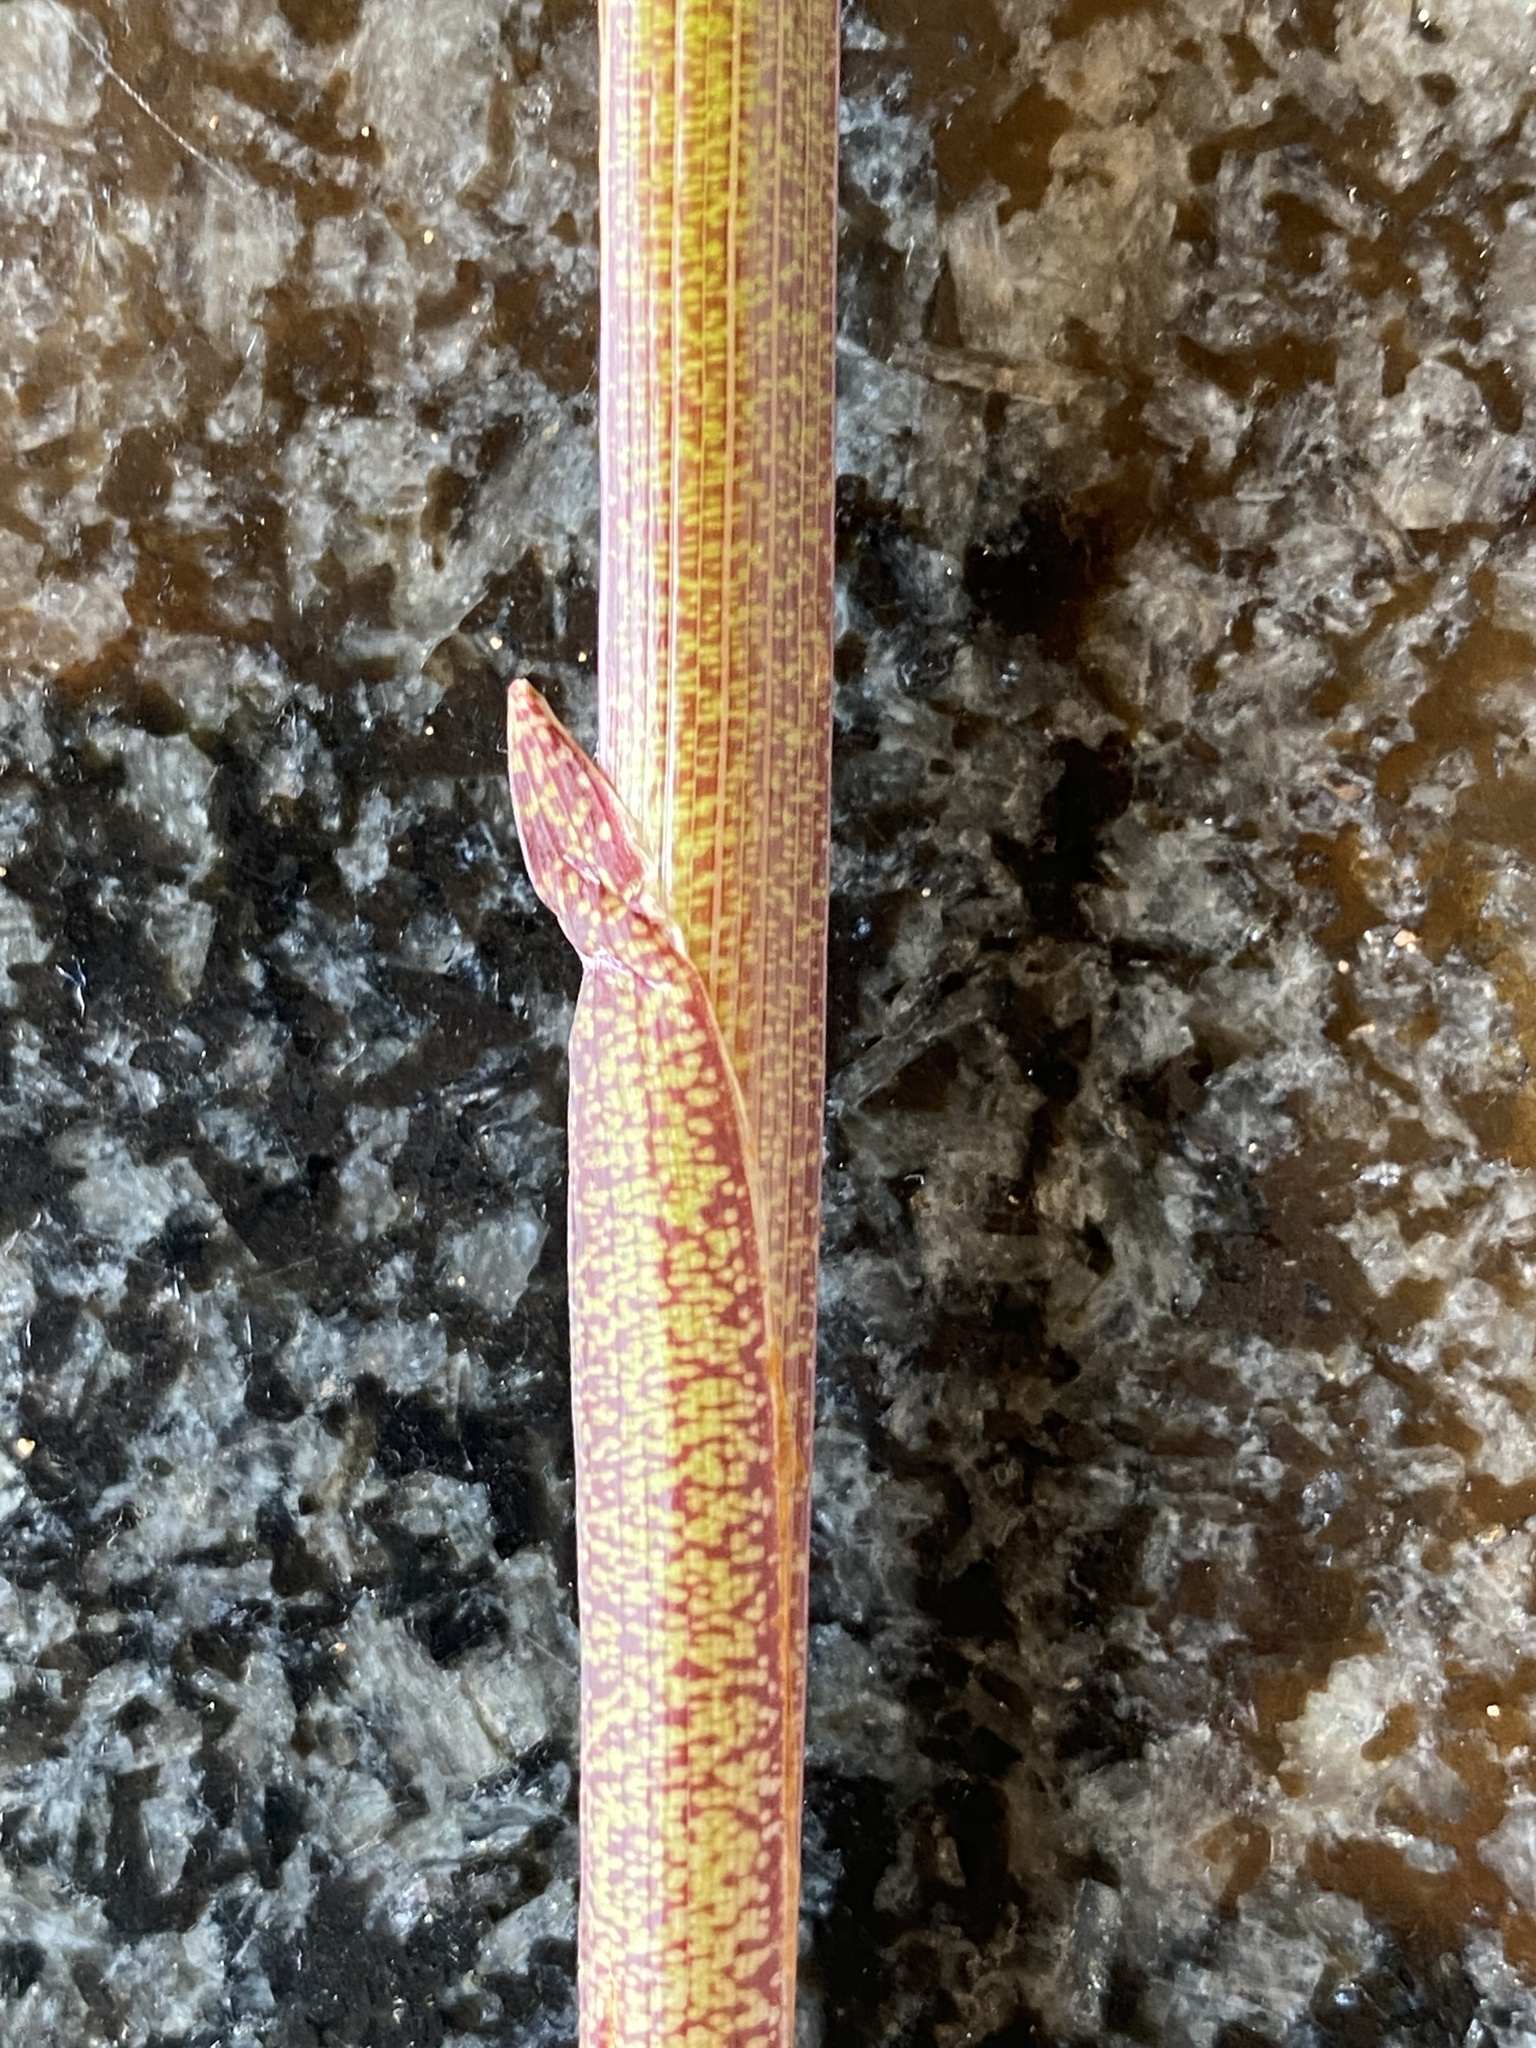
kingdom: Plantae
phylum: Tracheophyta
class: Liliopsida
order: Asparagales
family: Iridaceae
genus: Gladiolus
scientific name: Gladiolus grandiflorus
